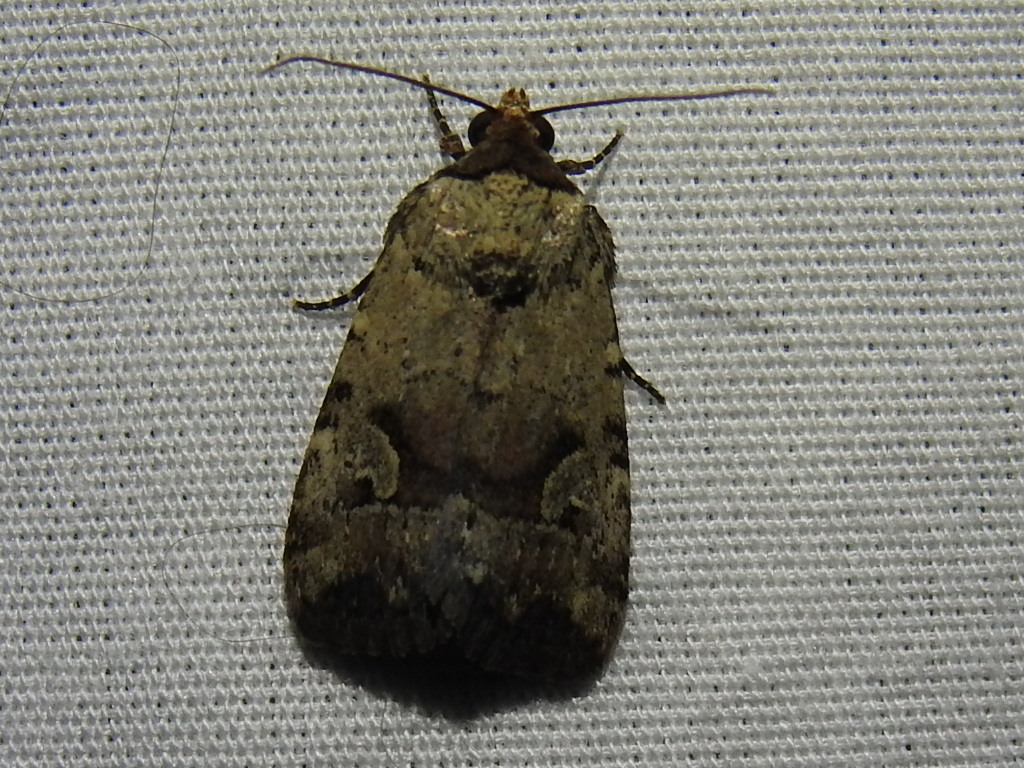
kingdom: Animalia
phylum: Arthropoda
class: Insecta
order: Lepidoptera
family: Noctuidae
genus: Elaphria
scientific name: Elaphria festivoides
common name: Festive midget
